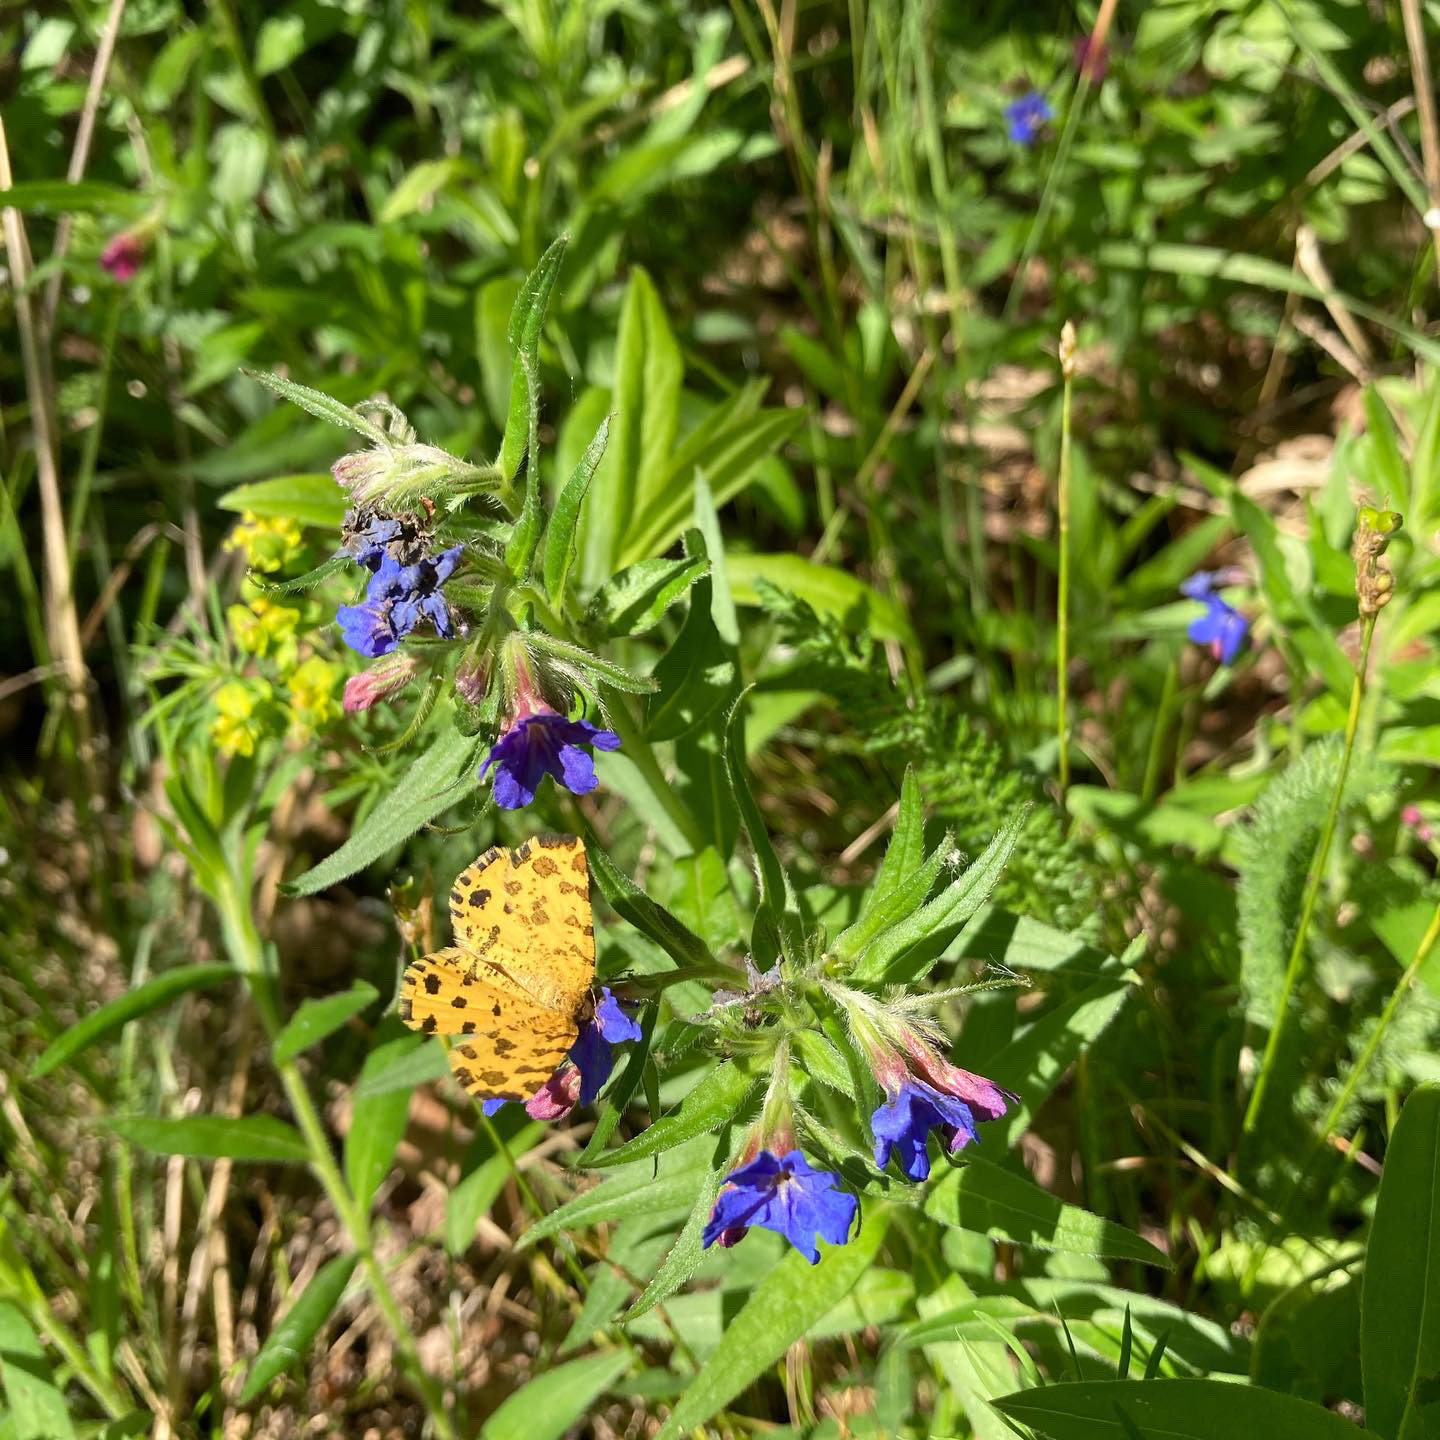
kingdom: Animalia
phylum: Arthropoda
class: Insecta
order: Lepidoptera
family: Geometridae
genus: Pseudopanthera
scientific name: Pseudopanthera macularia
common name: Speckled yellow
